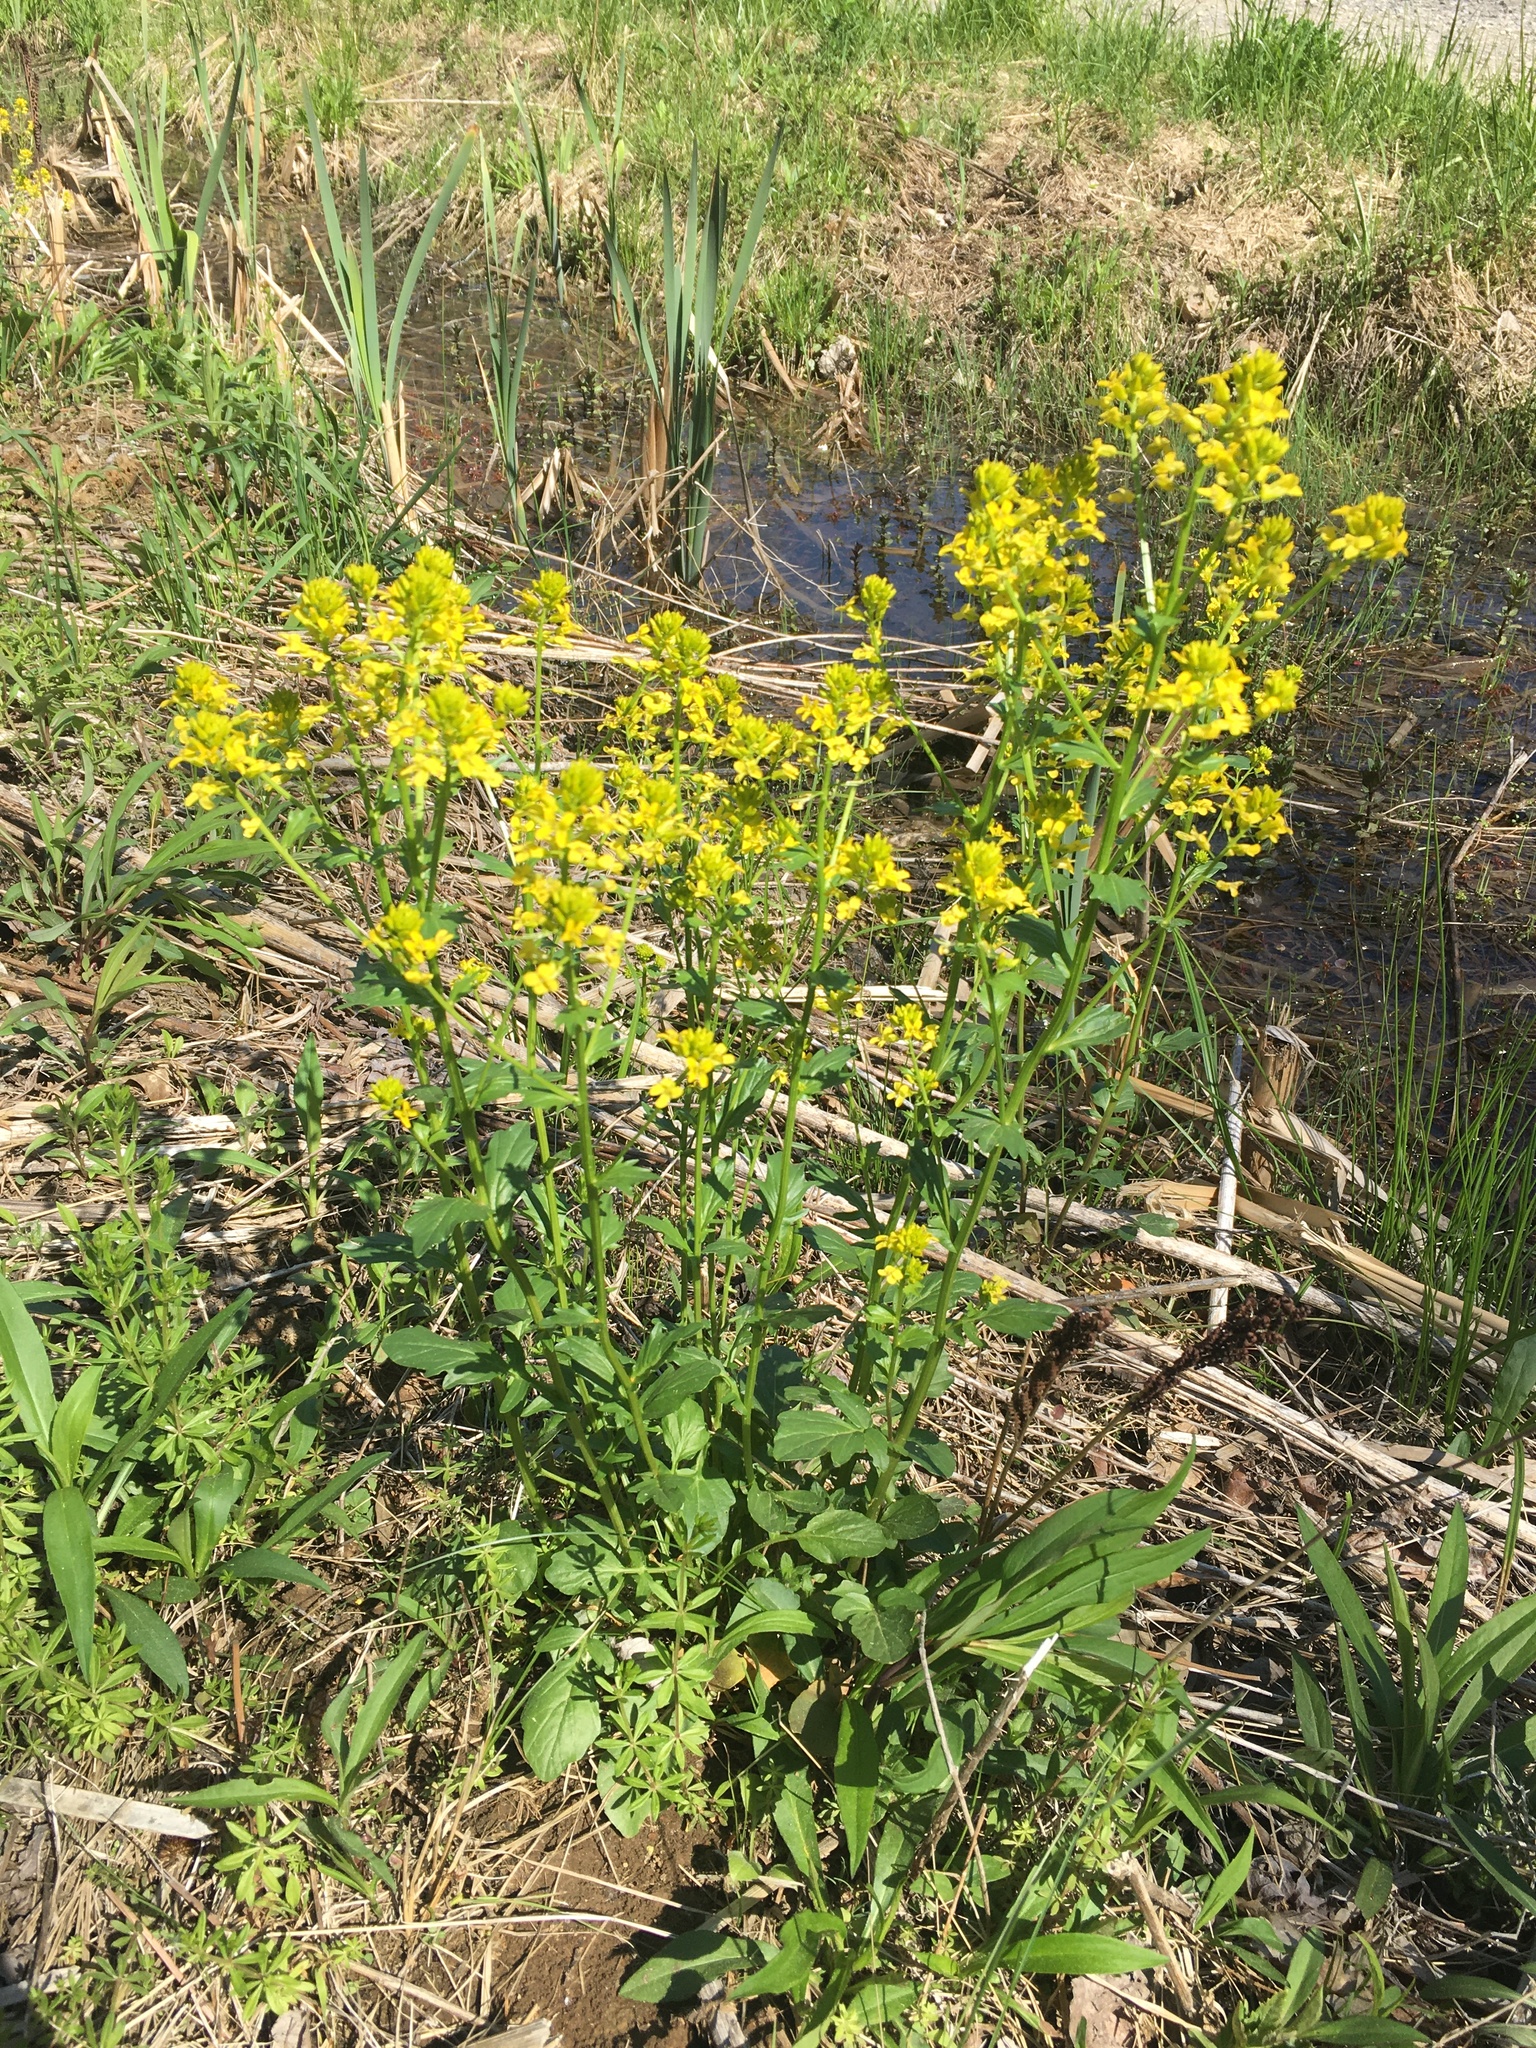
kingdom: Plantae
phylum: Tracheophyta
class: Magnoliopsida
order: Brassicales
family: Brassicaceae
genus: Barbarea
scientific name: Barbarea vulgaris
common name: Cressy-greens
